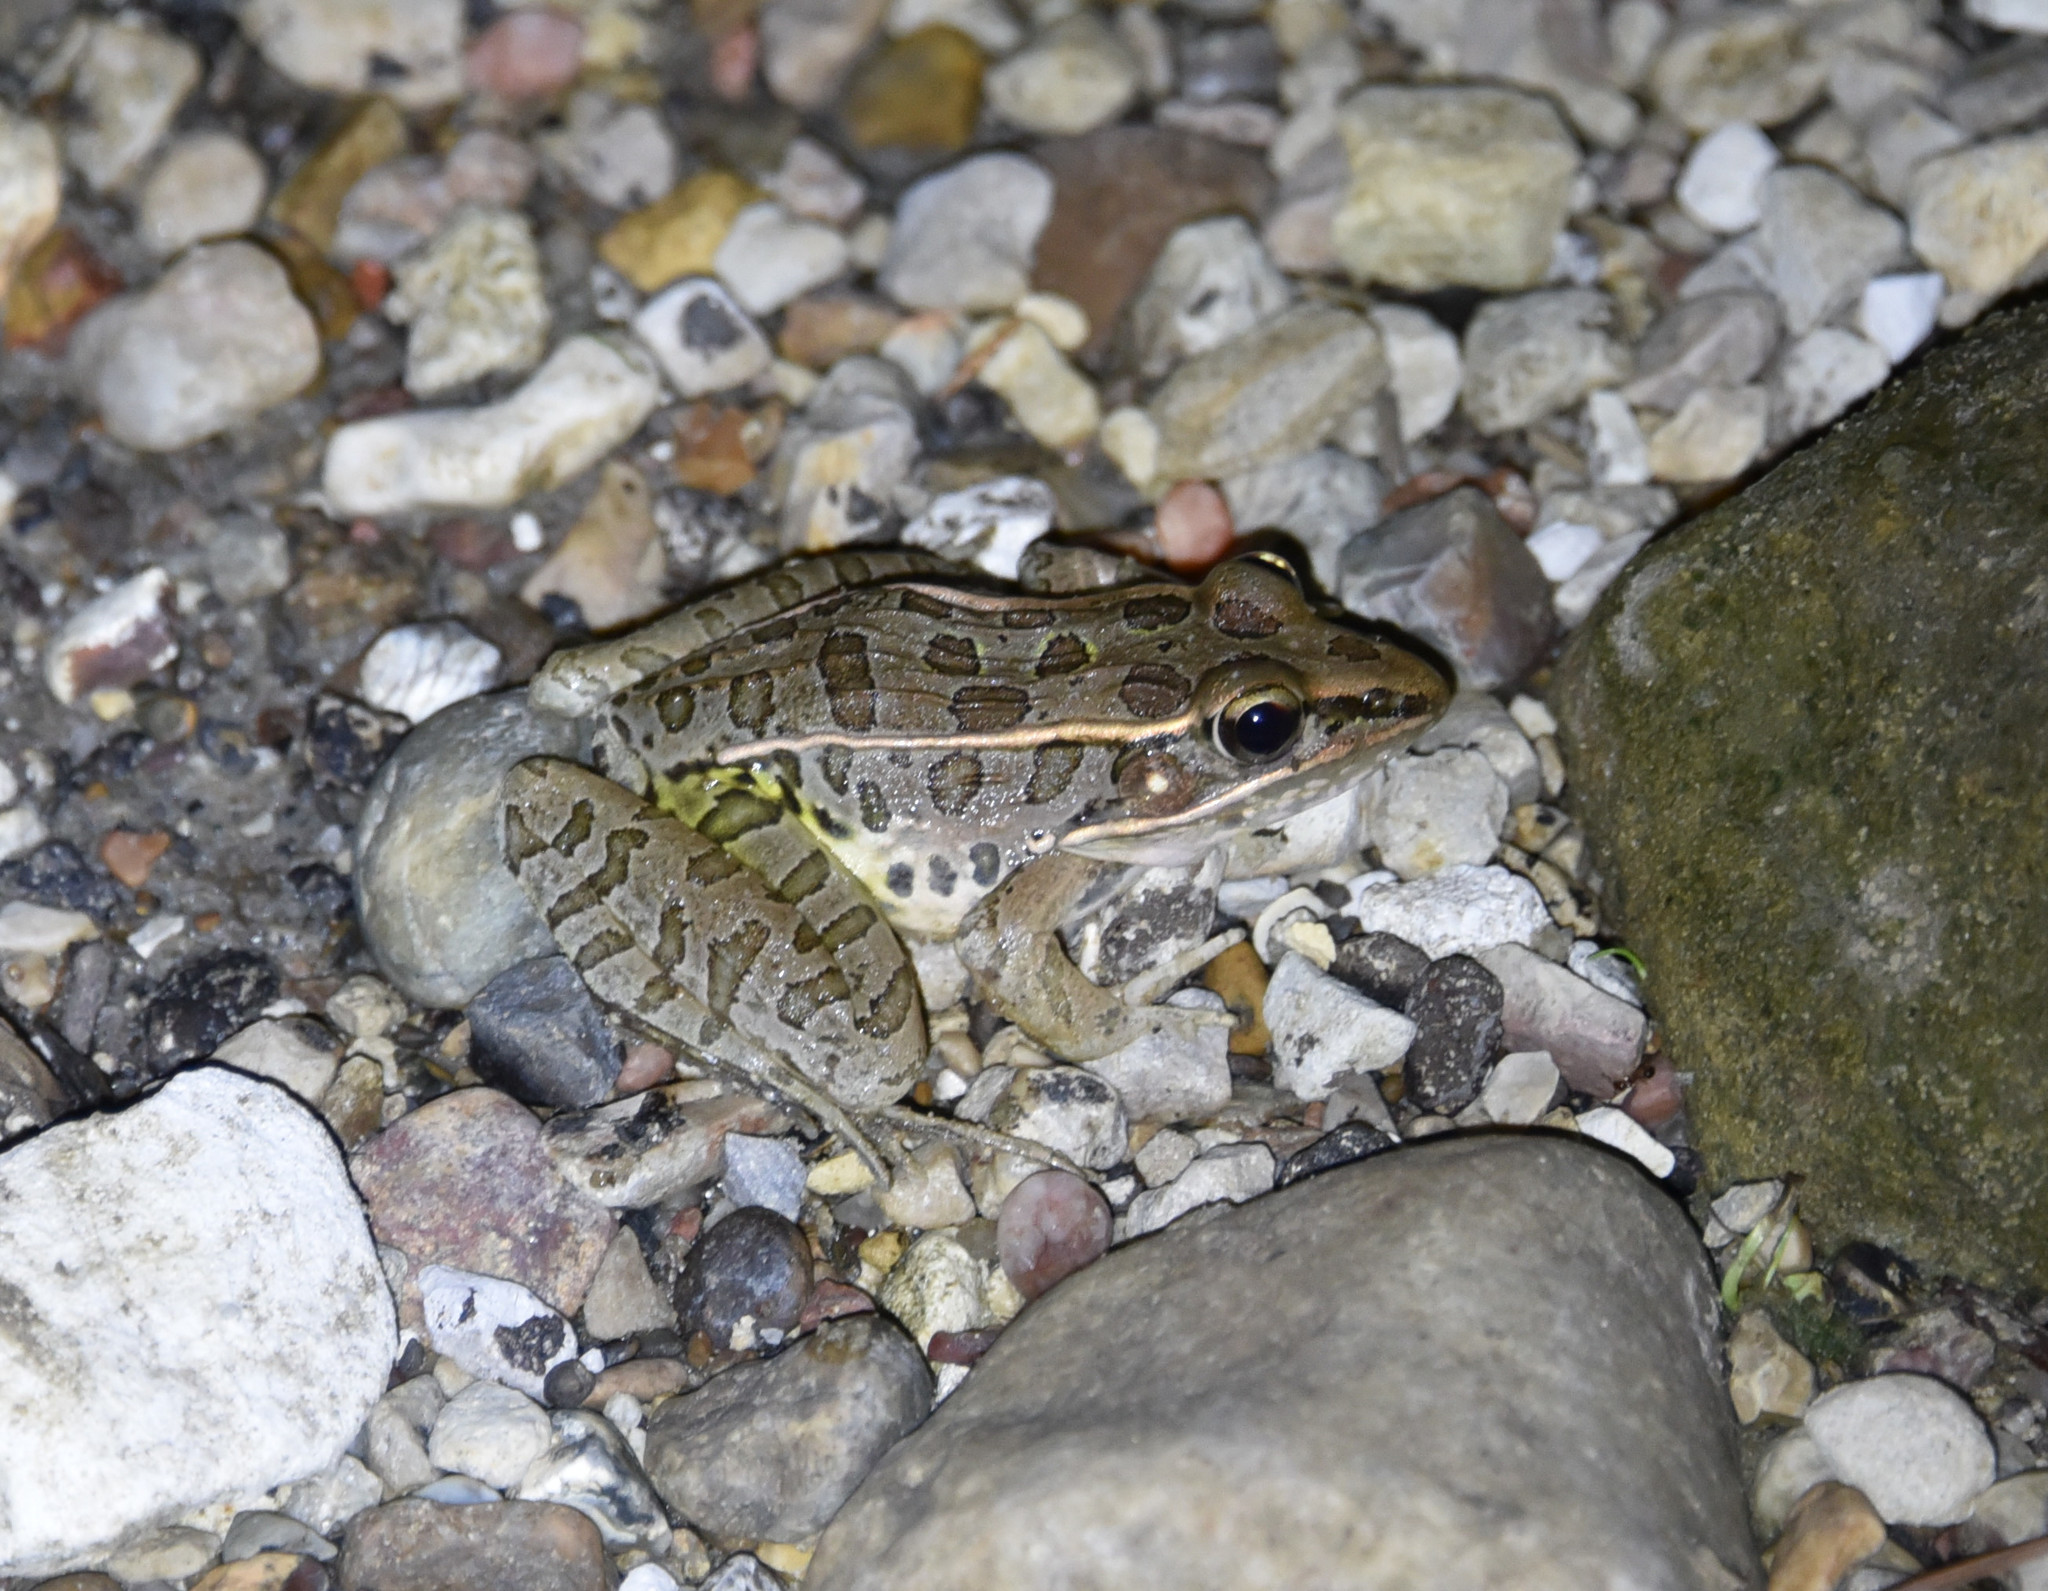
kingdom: Animalia
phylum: Chordata
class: Amphibia
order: Anura
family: Ranidae
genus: Lithobates
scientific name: Lithobates sphenocephalus
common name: Southern leopard frog
